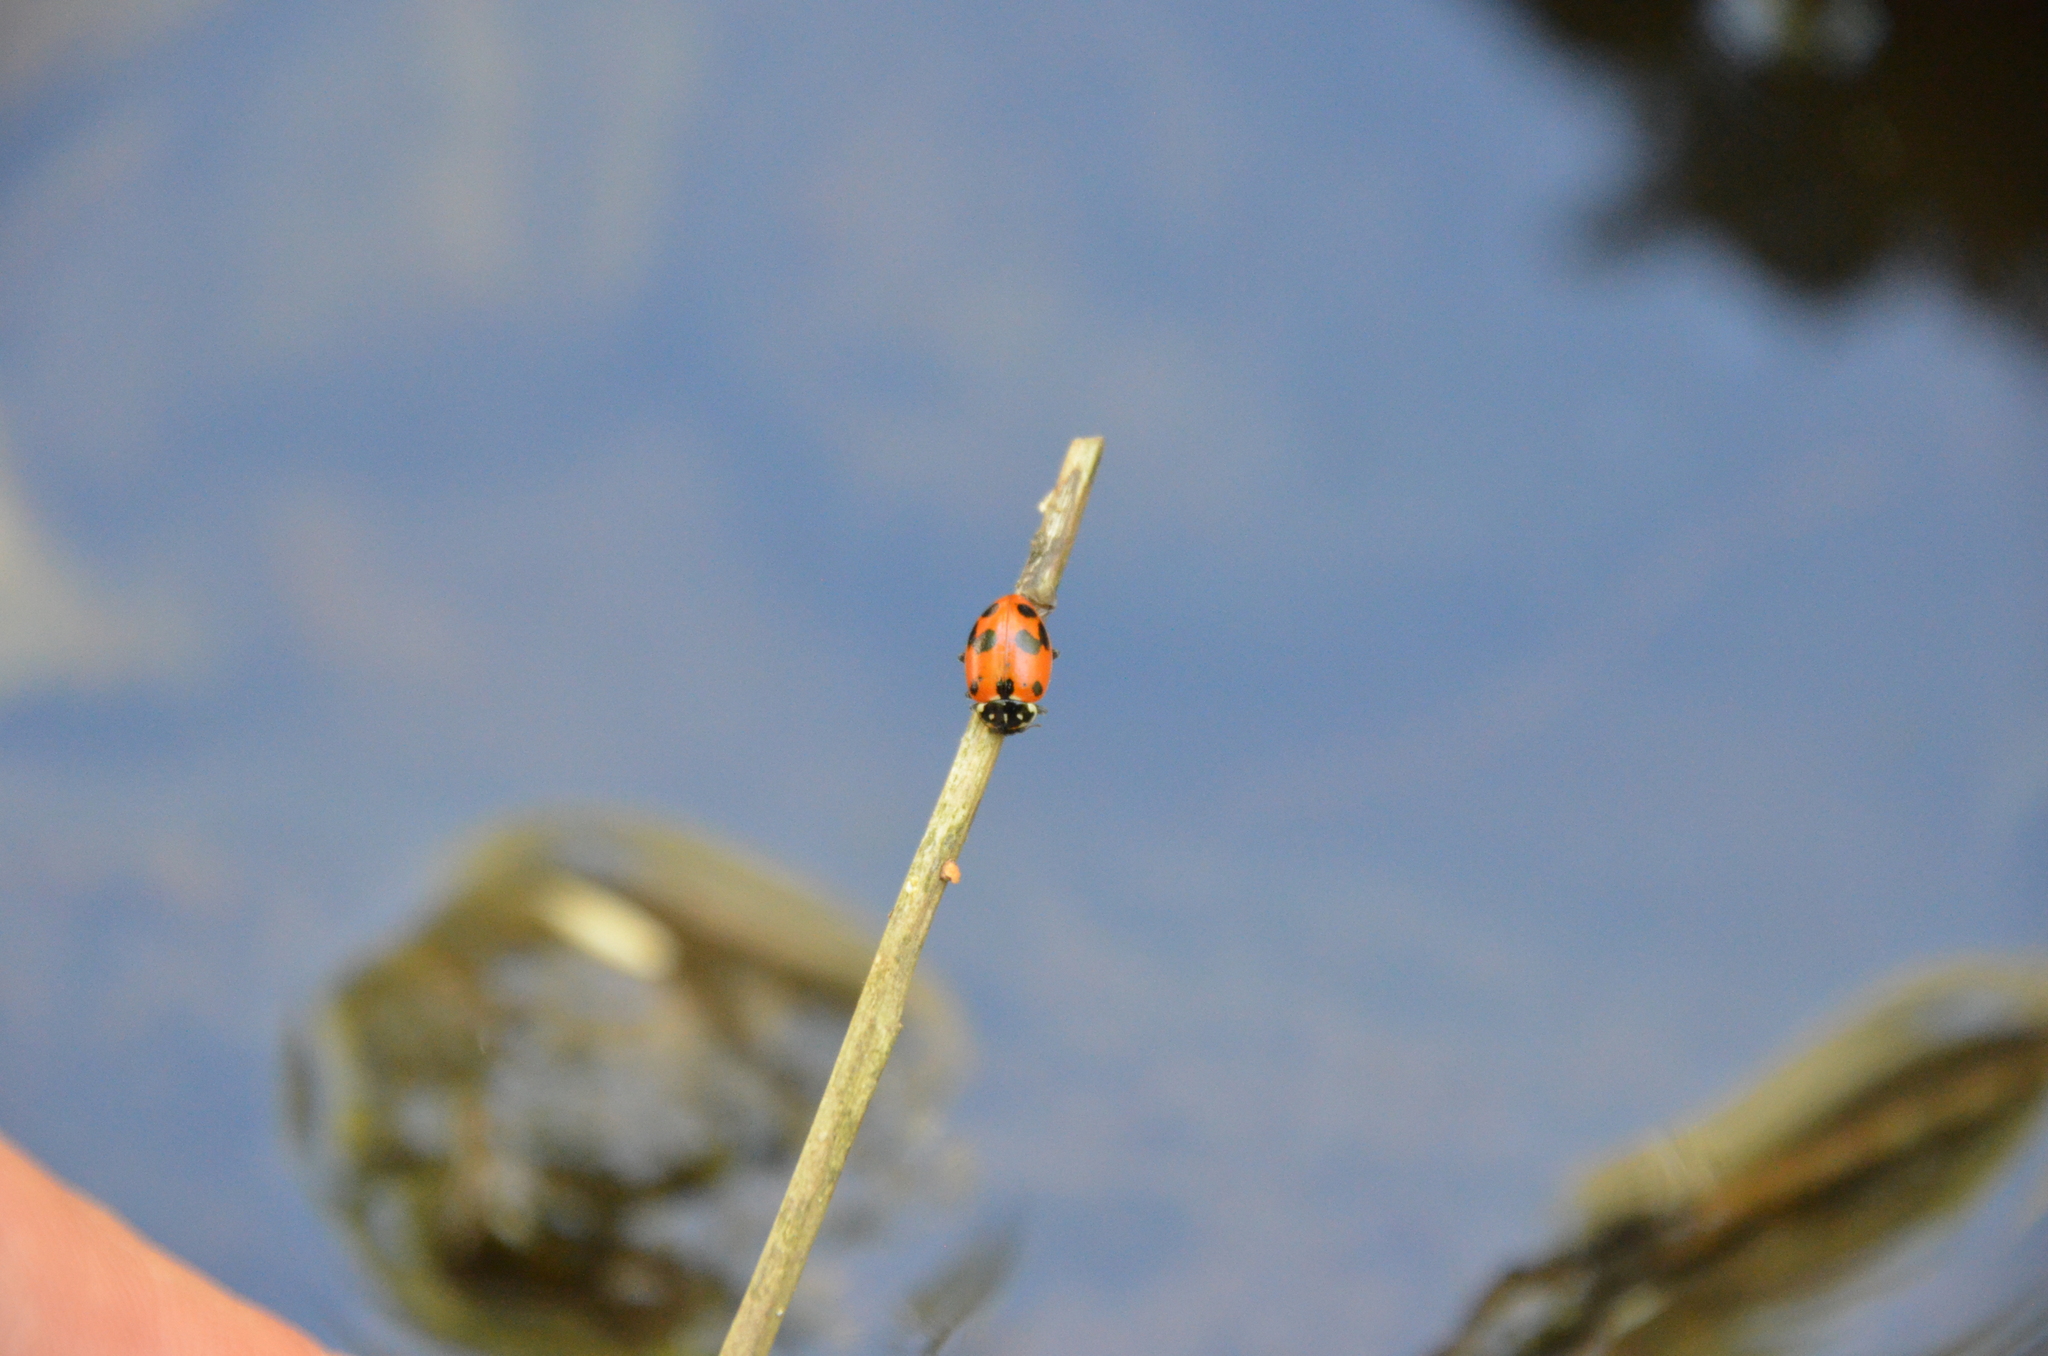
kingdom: Animalia
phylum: Arthropoda
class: Insecta
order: Coleoptera
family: Coccinellidae
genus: Hippodamia
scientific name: Hippodamia variegata
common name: Ladybird beetle
